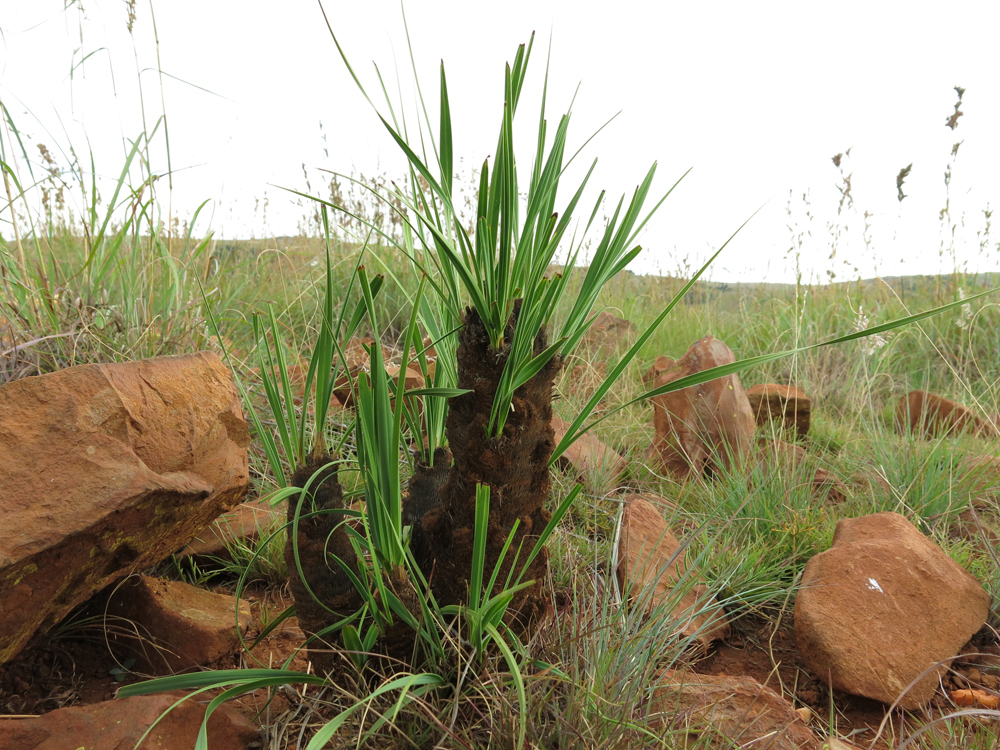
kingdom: Plantae
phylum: Tracheophyta
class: Liliopsida
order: Pandanales
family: Velloziaceae
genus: Xerophyta
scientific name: Xerophyta retinervis
